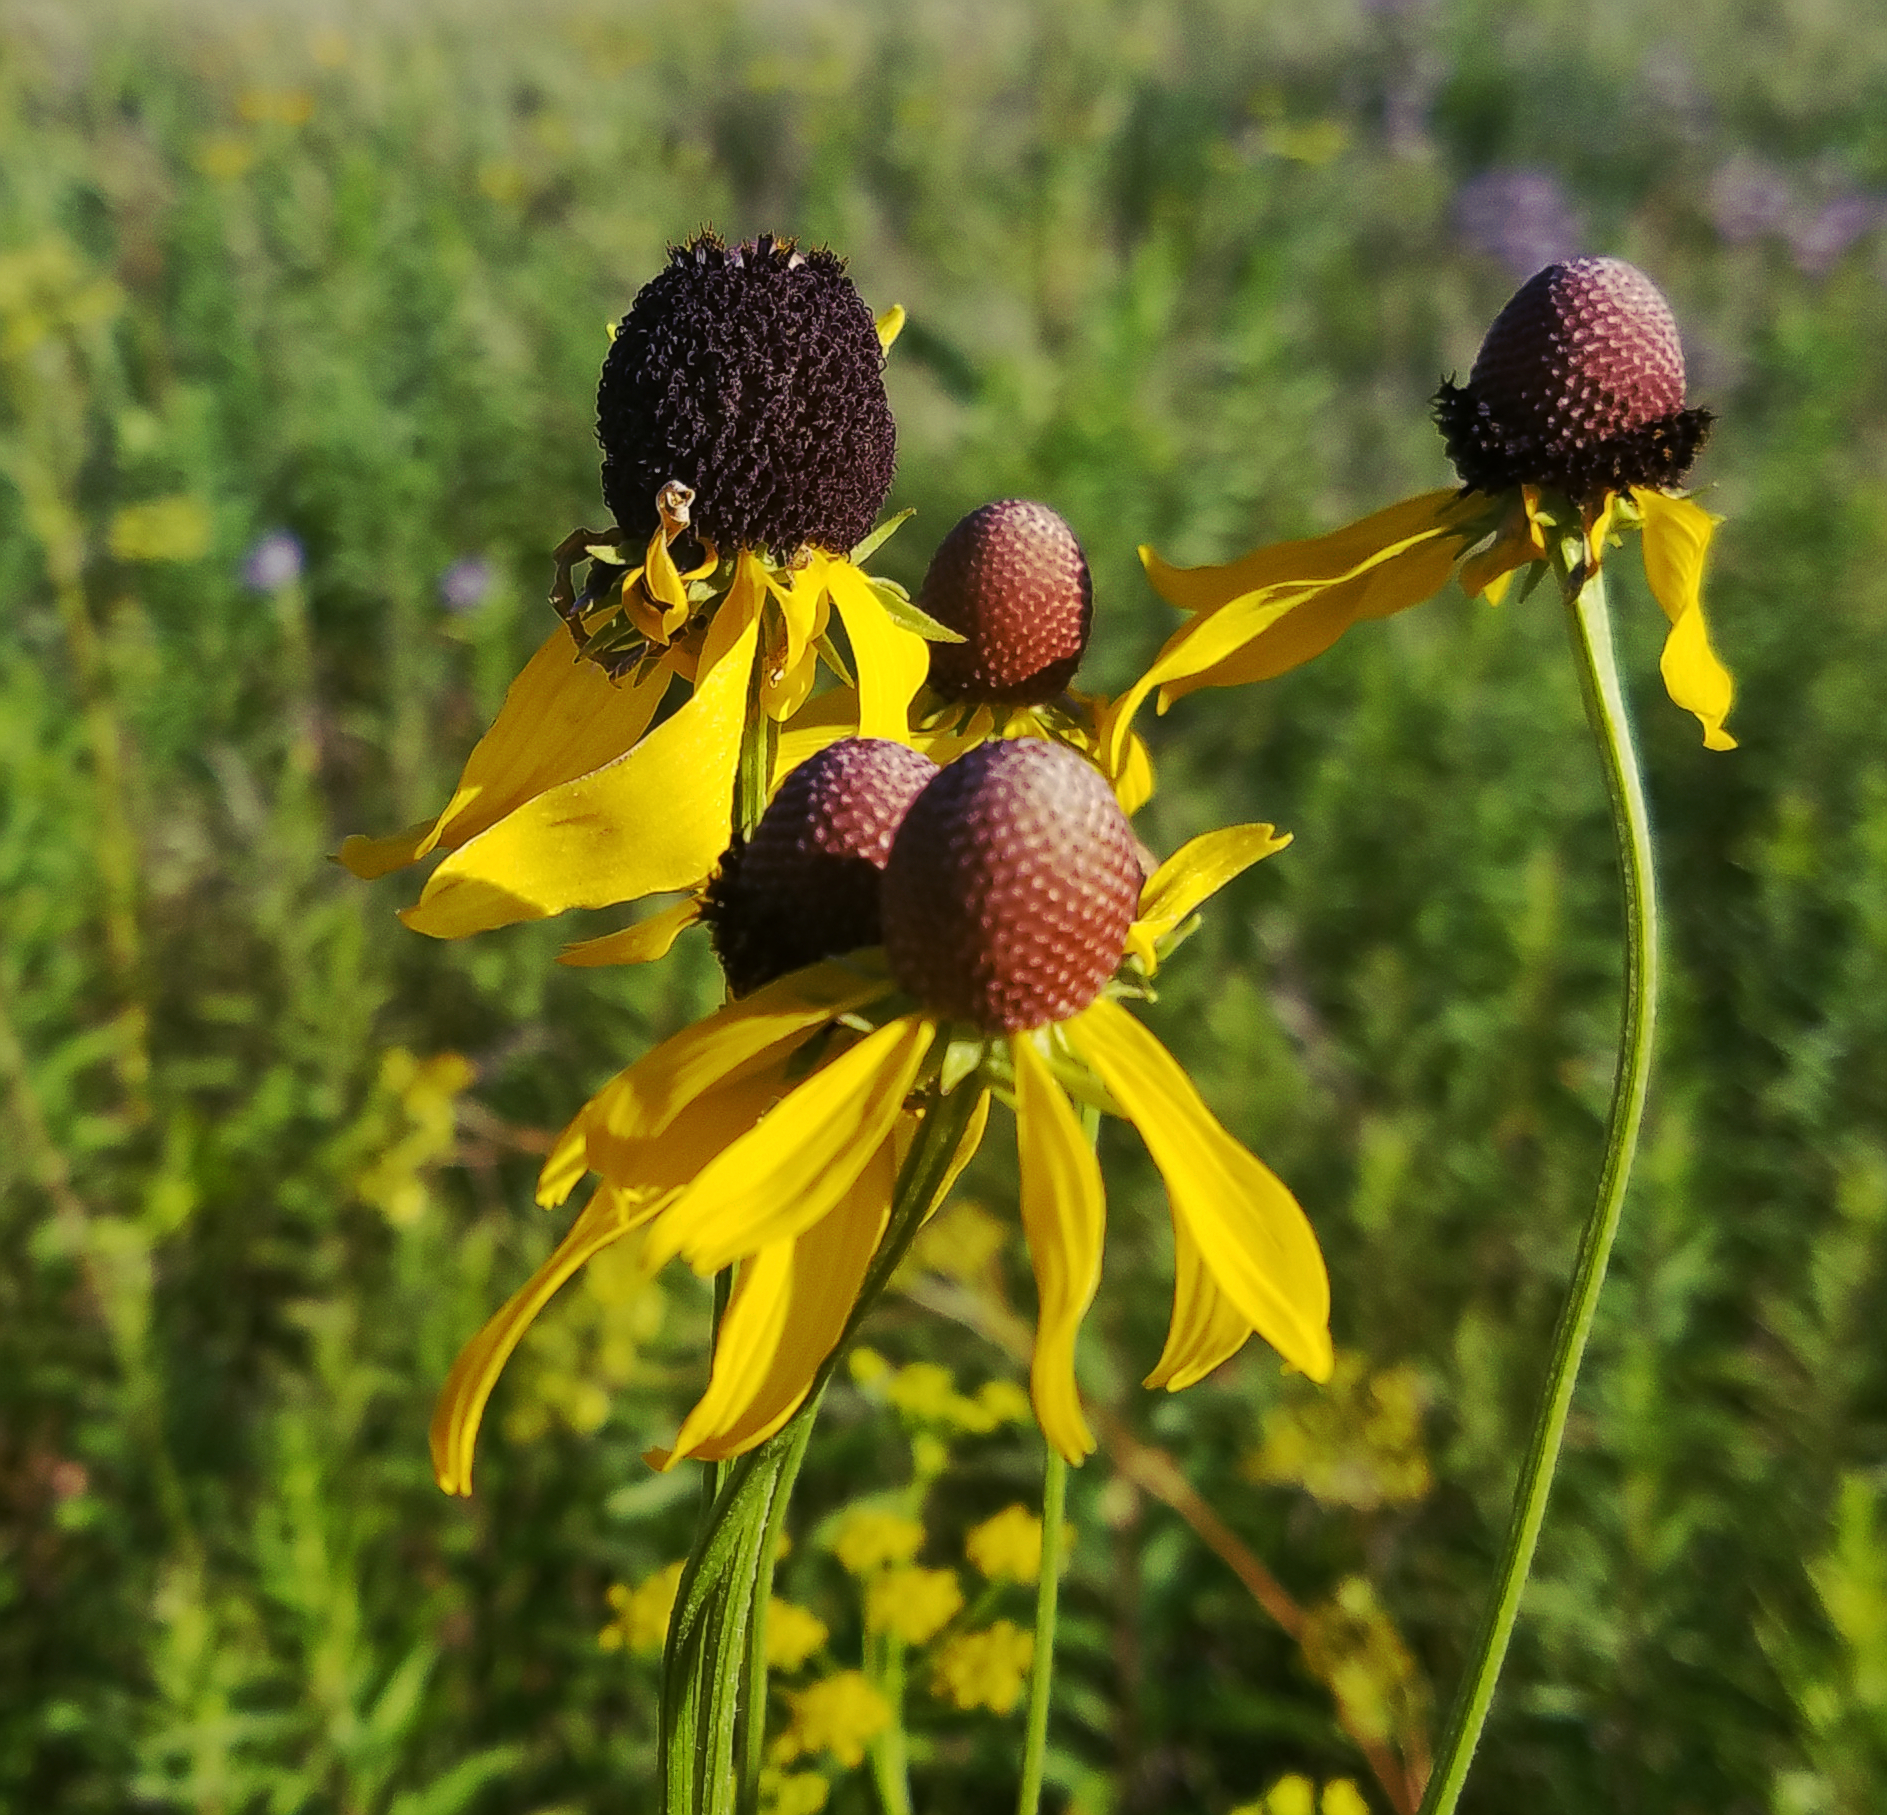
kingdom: Plantae
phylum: Tracheophyta
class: Magnoliopsida
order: Asterales
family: Asteraceae
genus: Ratibida
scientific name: Ratibida pinnata
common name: Drooping prairie-coneflower
